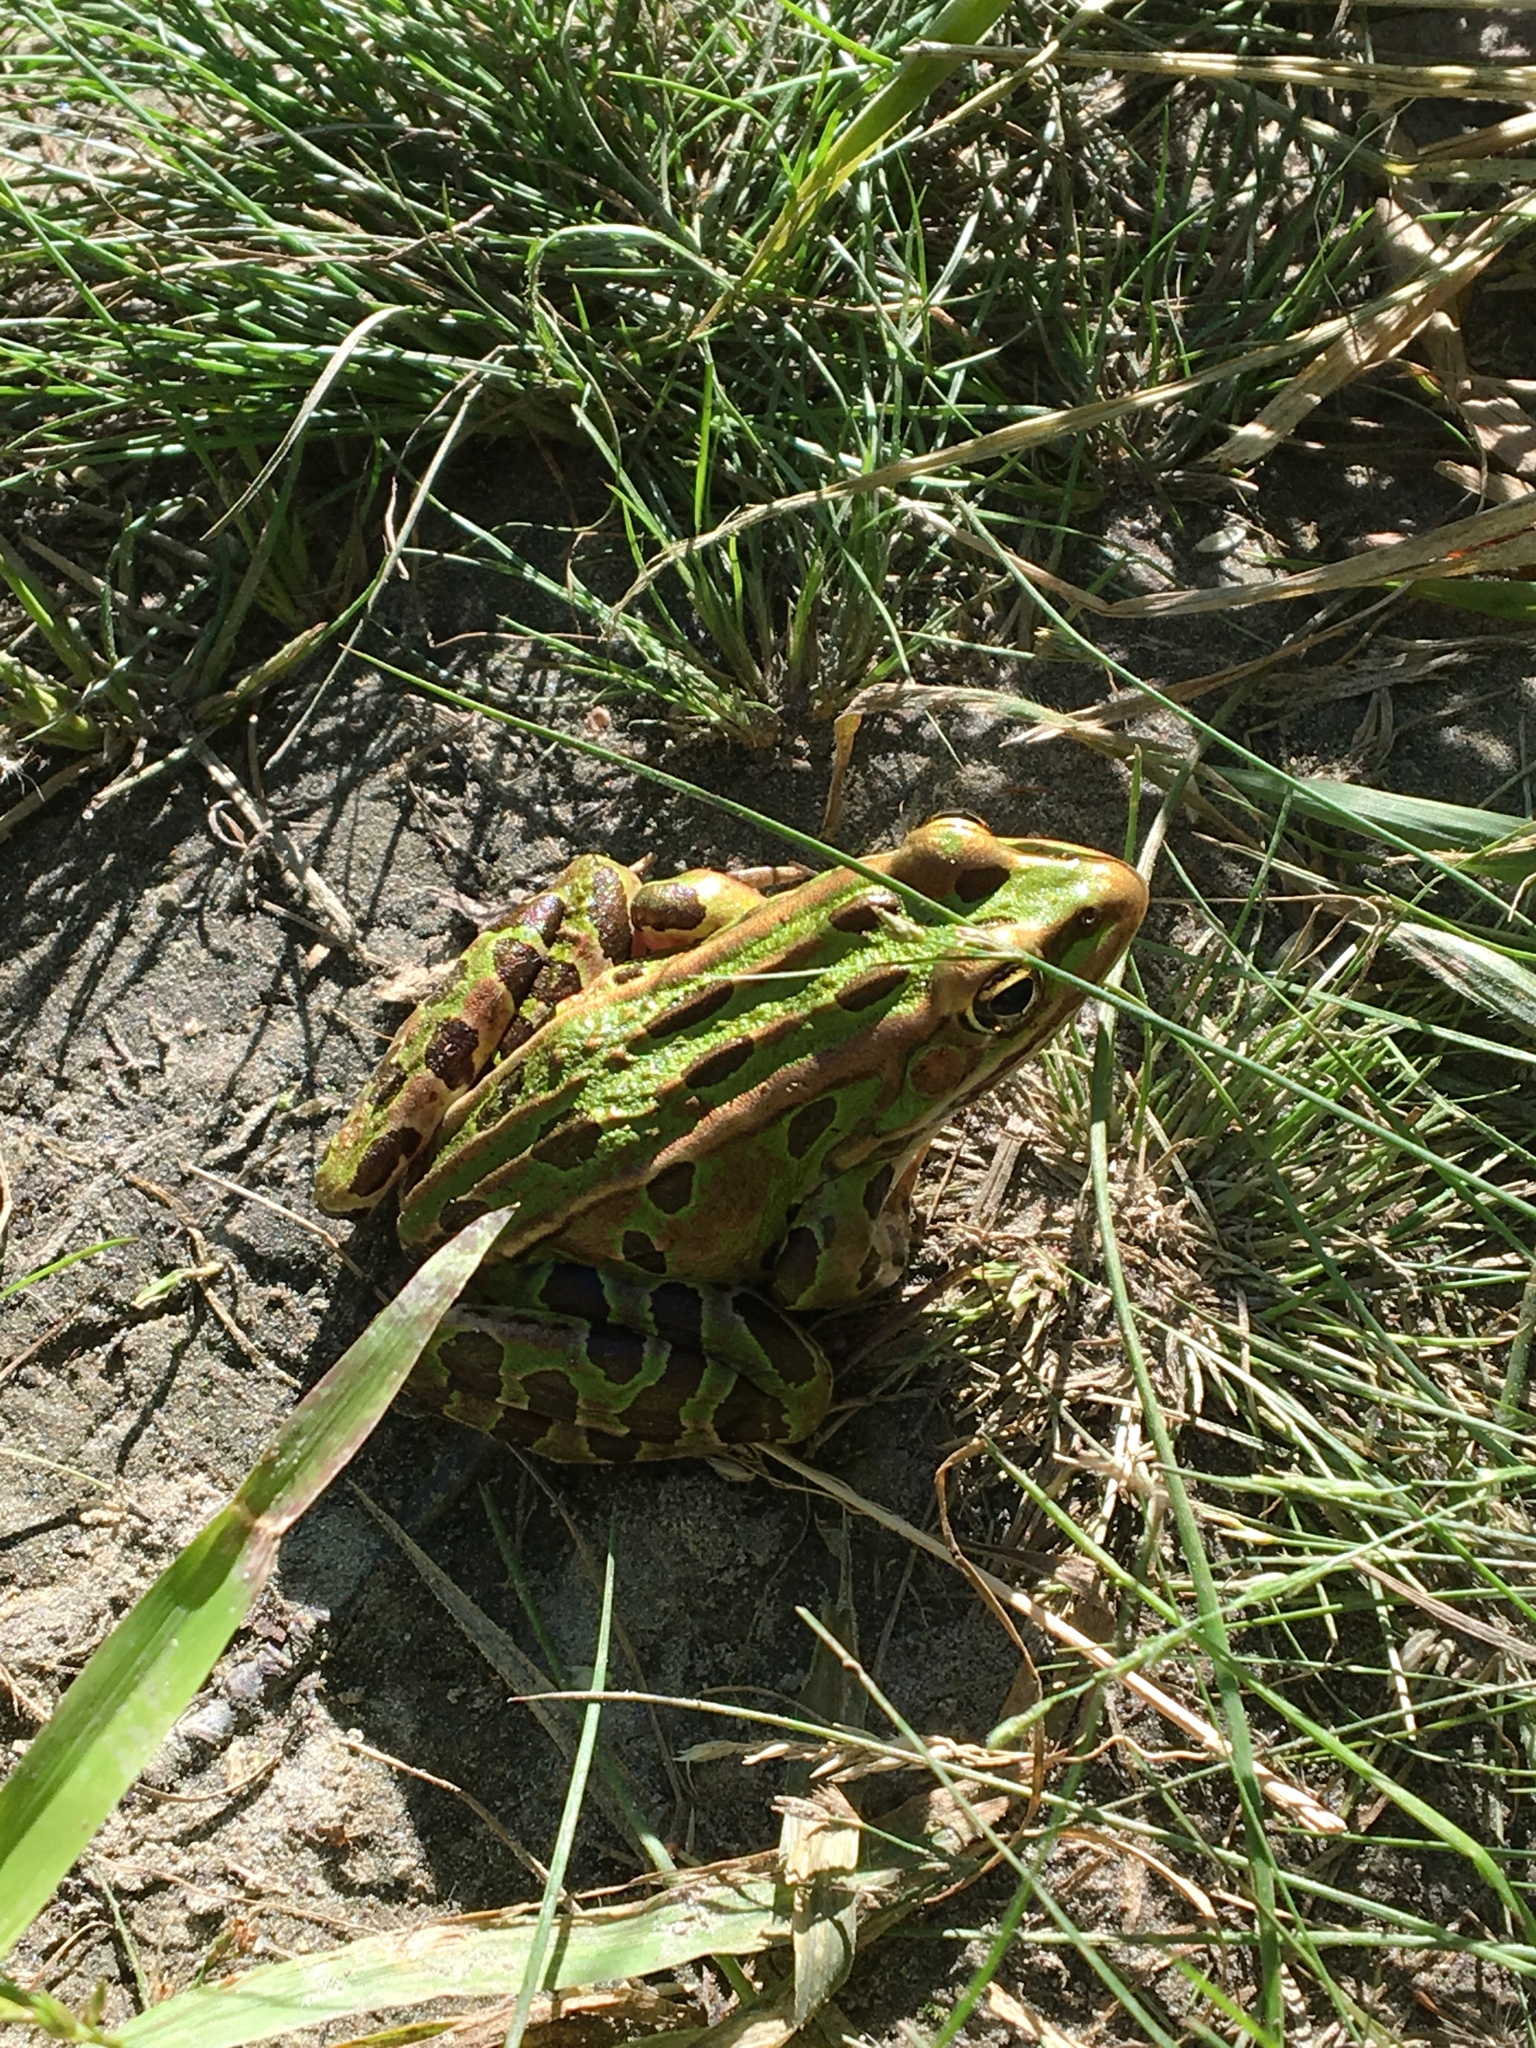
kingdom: Animalia
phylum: Chordata
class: Amphibia
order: Anura
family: Ranidae
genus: Lithobates
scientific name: Lithobates pipiens
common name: Northern leopard frog
